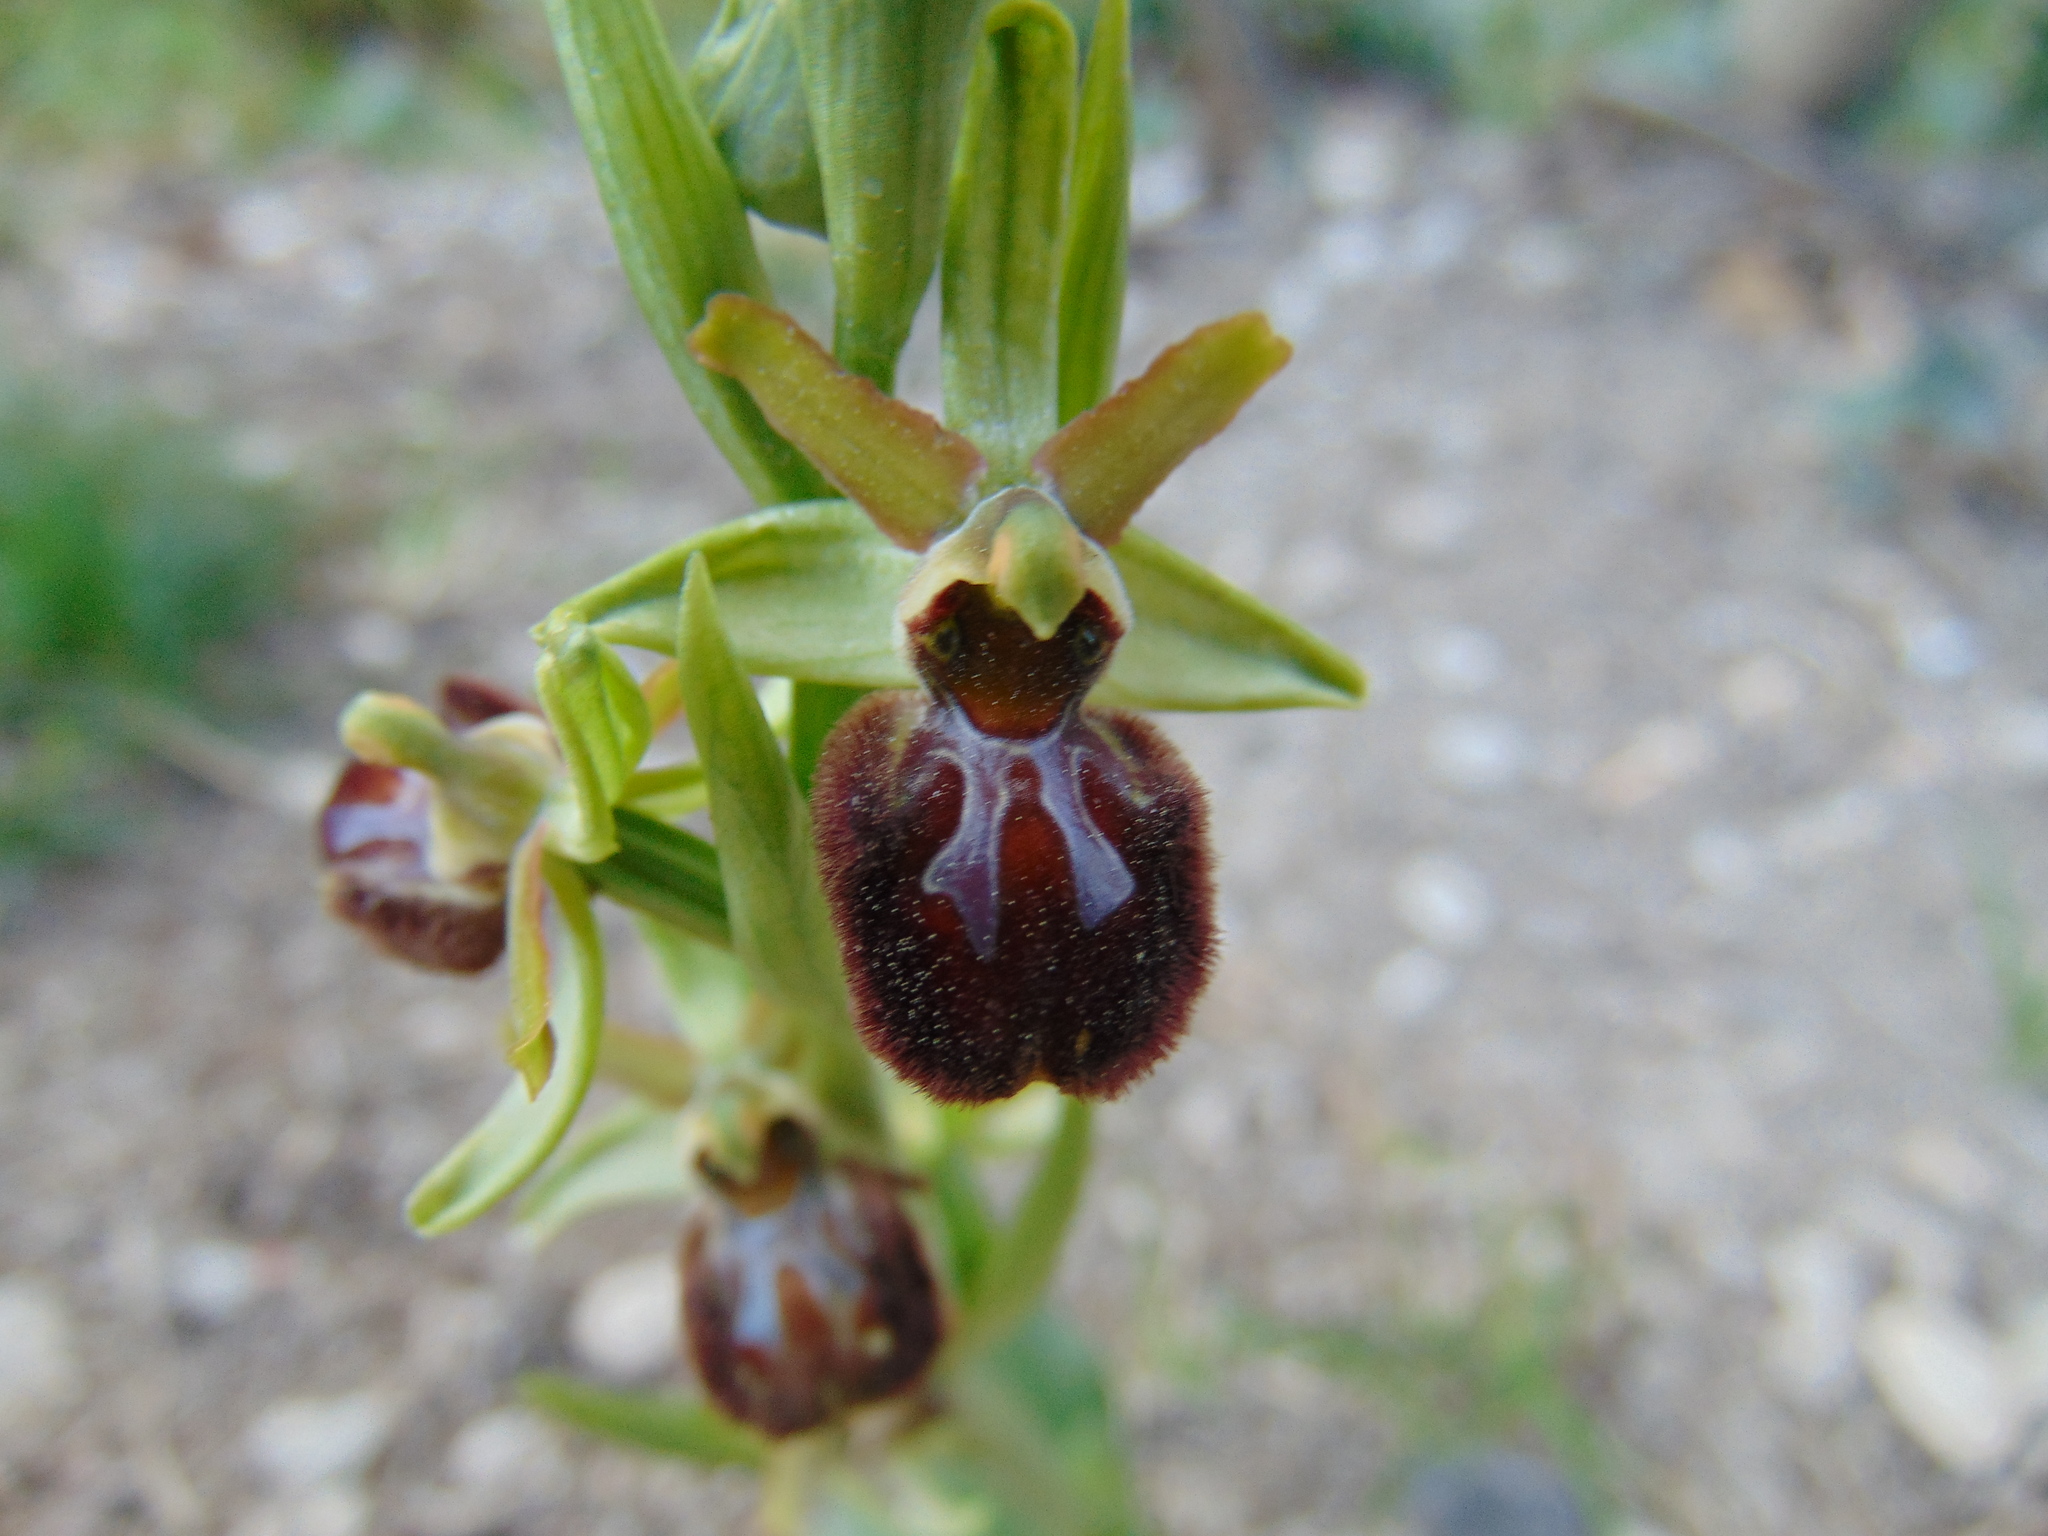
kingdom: Plantae
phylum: Tracheophyta
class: Liliopsida
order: Asparagales
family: Orchidaceae
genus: Ophrys
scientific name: Ophrys sphegodes
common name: Early spider-orchid
